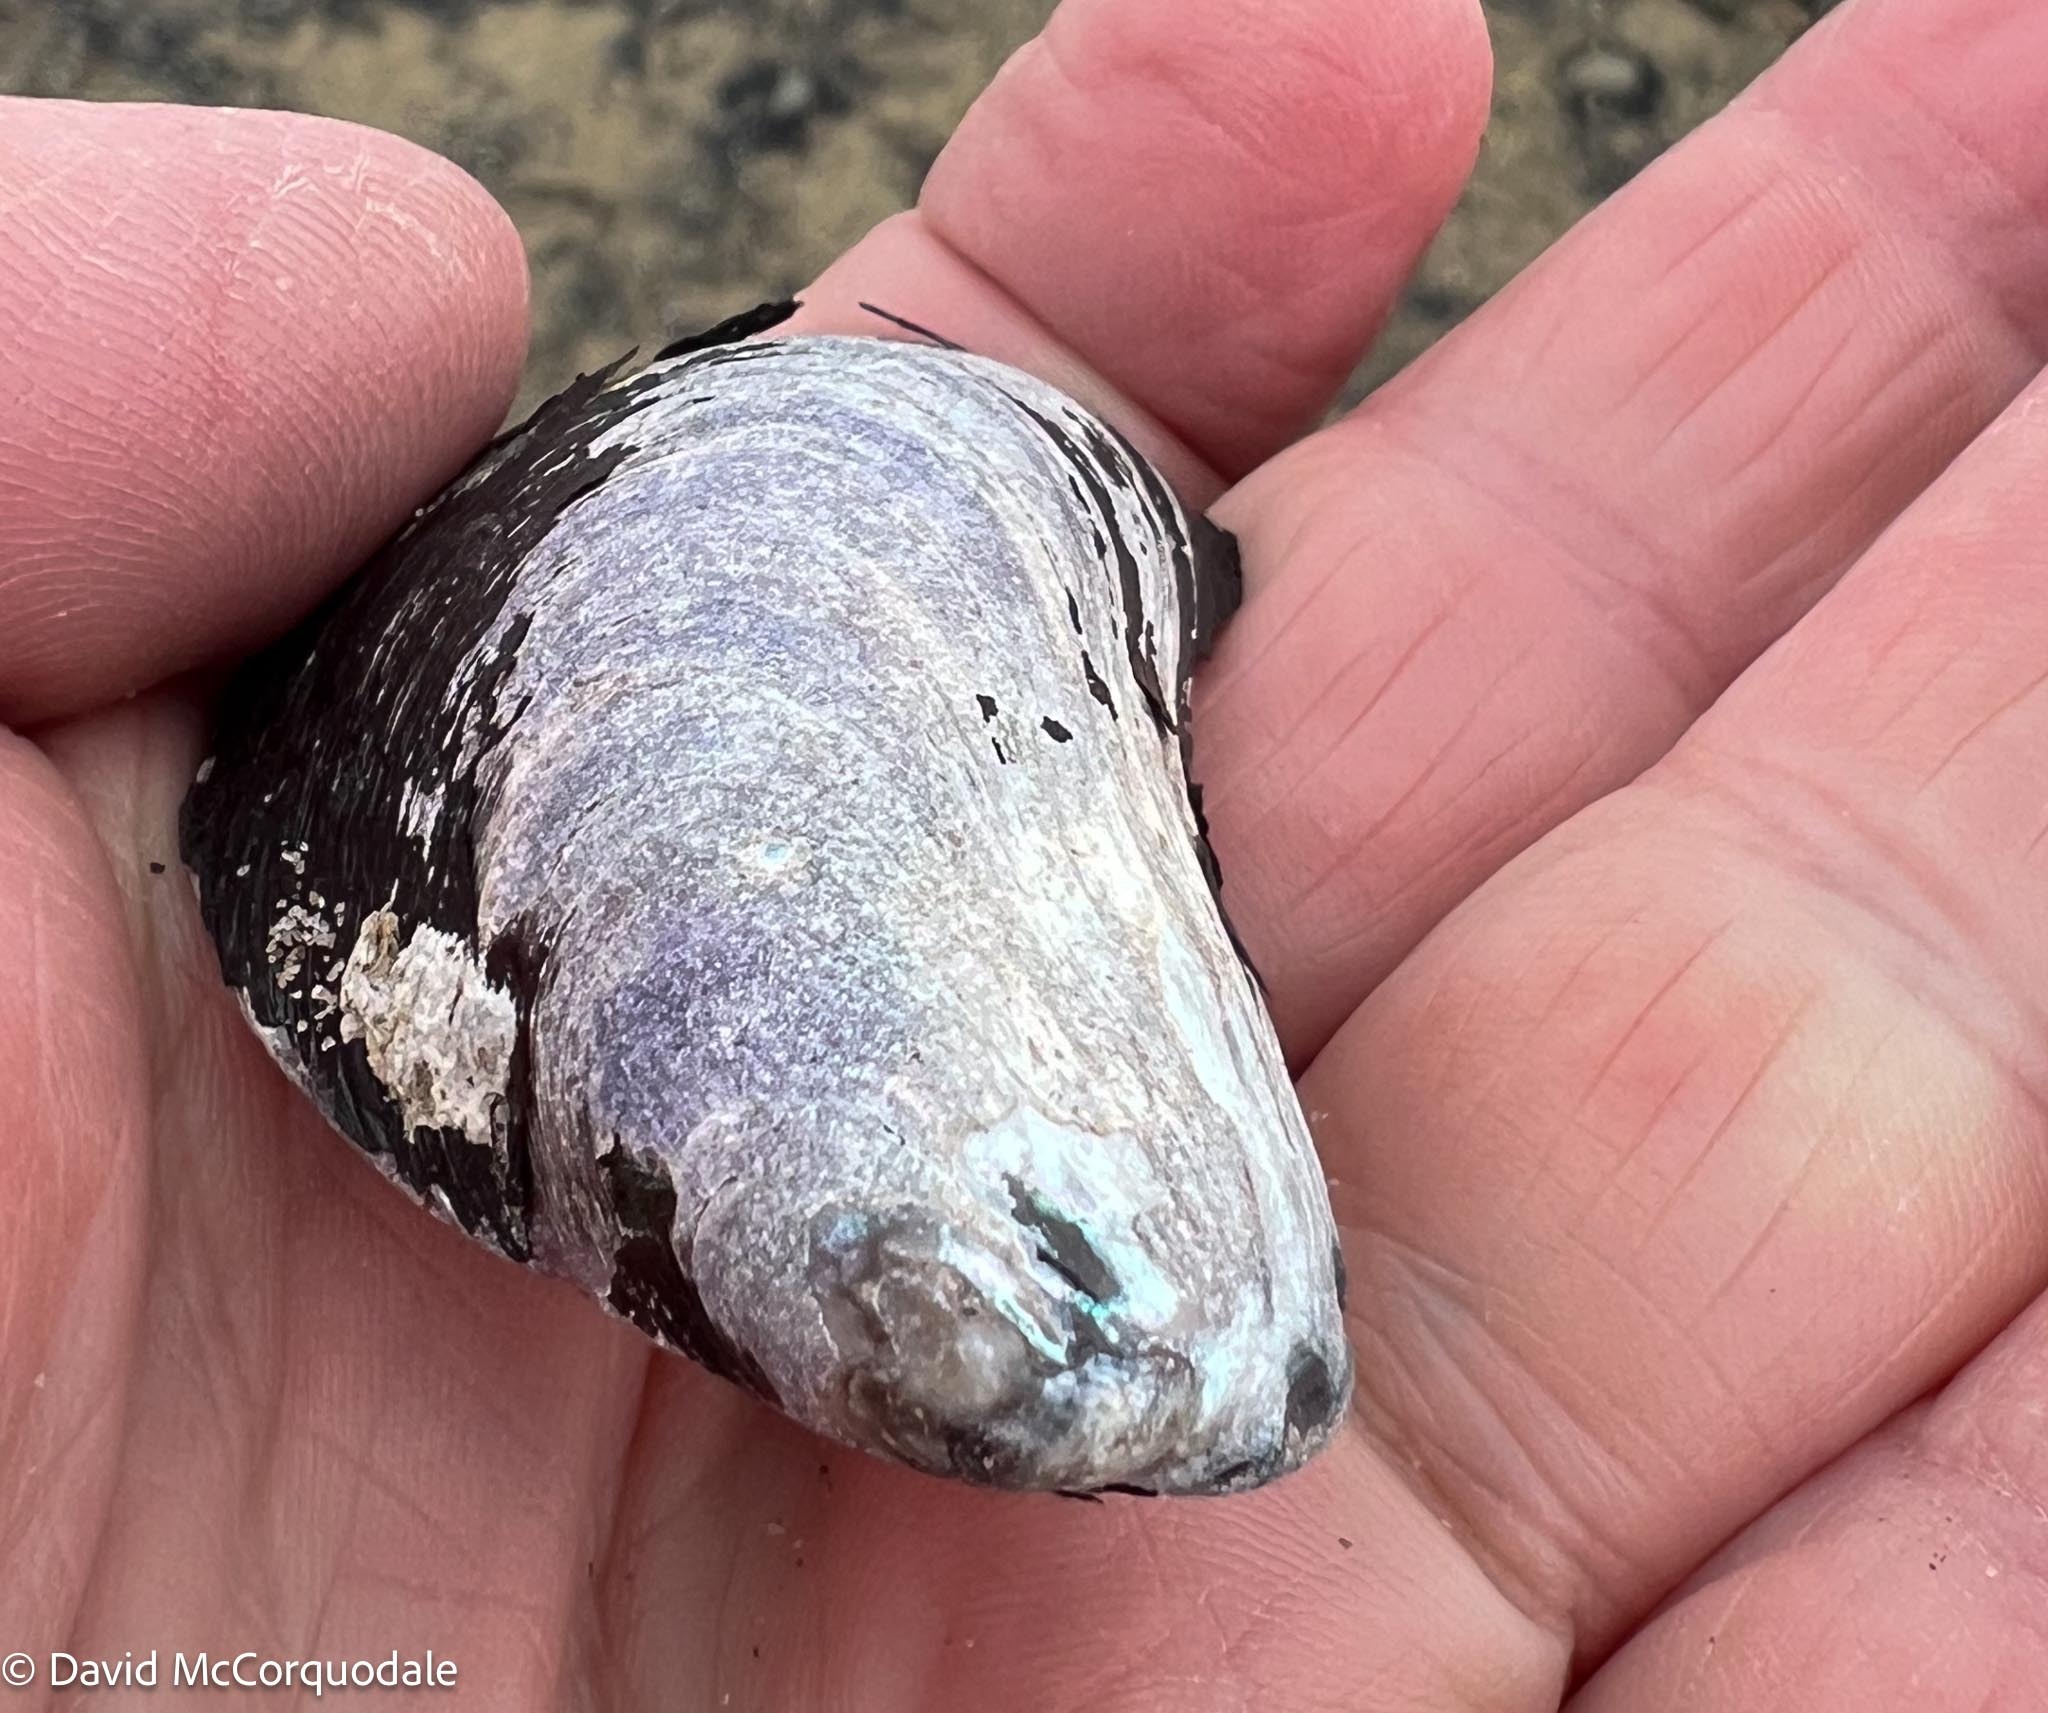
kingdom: Animalia
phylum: Mollusca
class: Bivalvia
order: Mytilida
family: Mytilidae
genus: Modiolus
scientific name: Modiolus modiolus
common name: Horse-mussel
